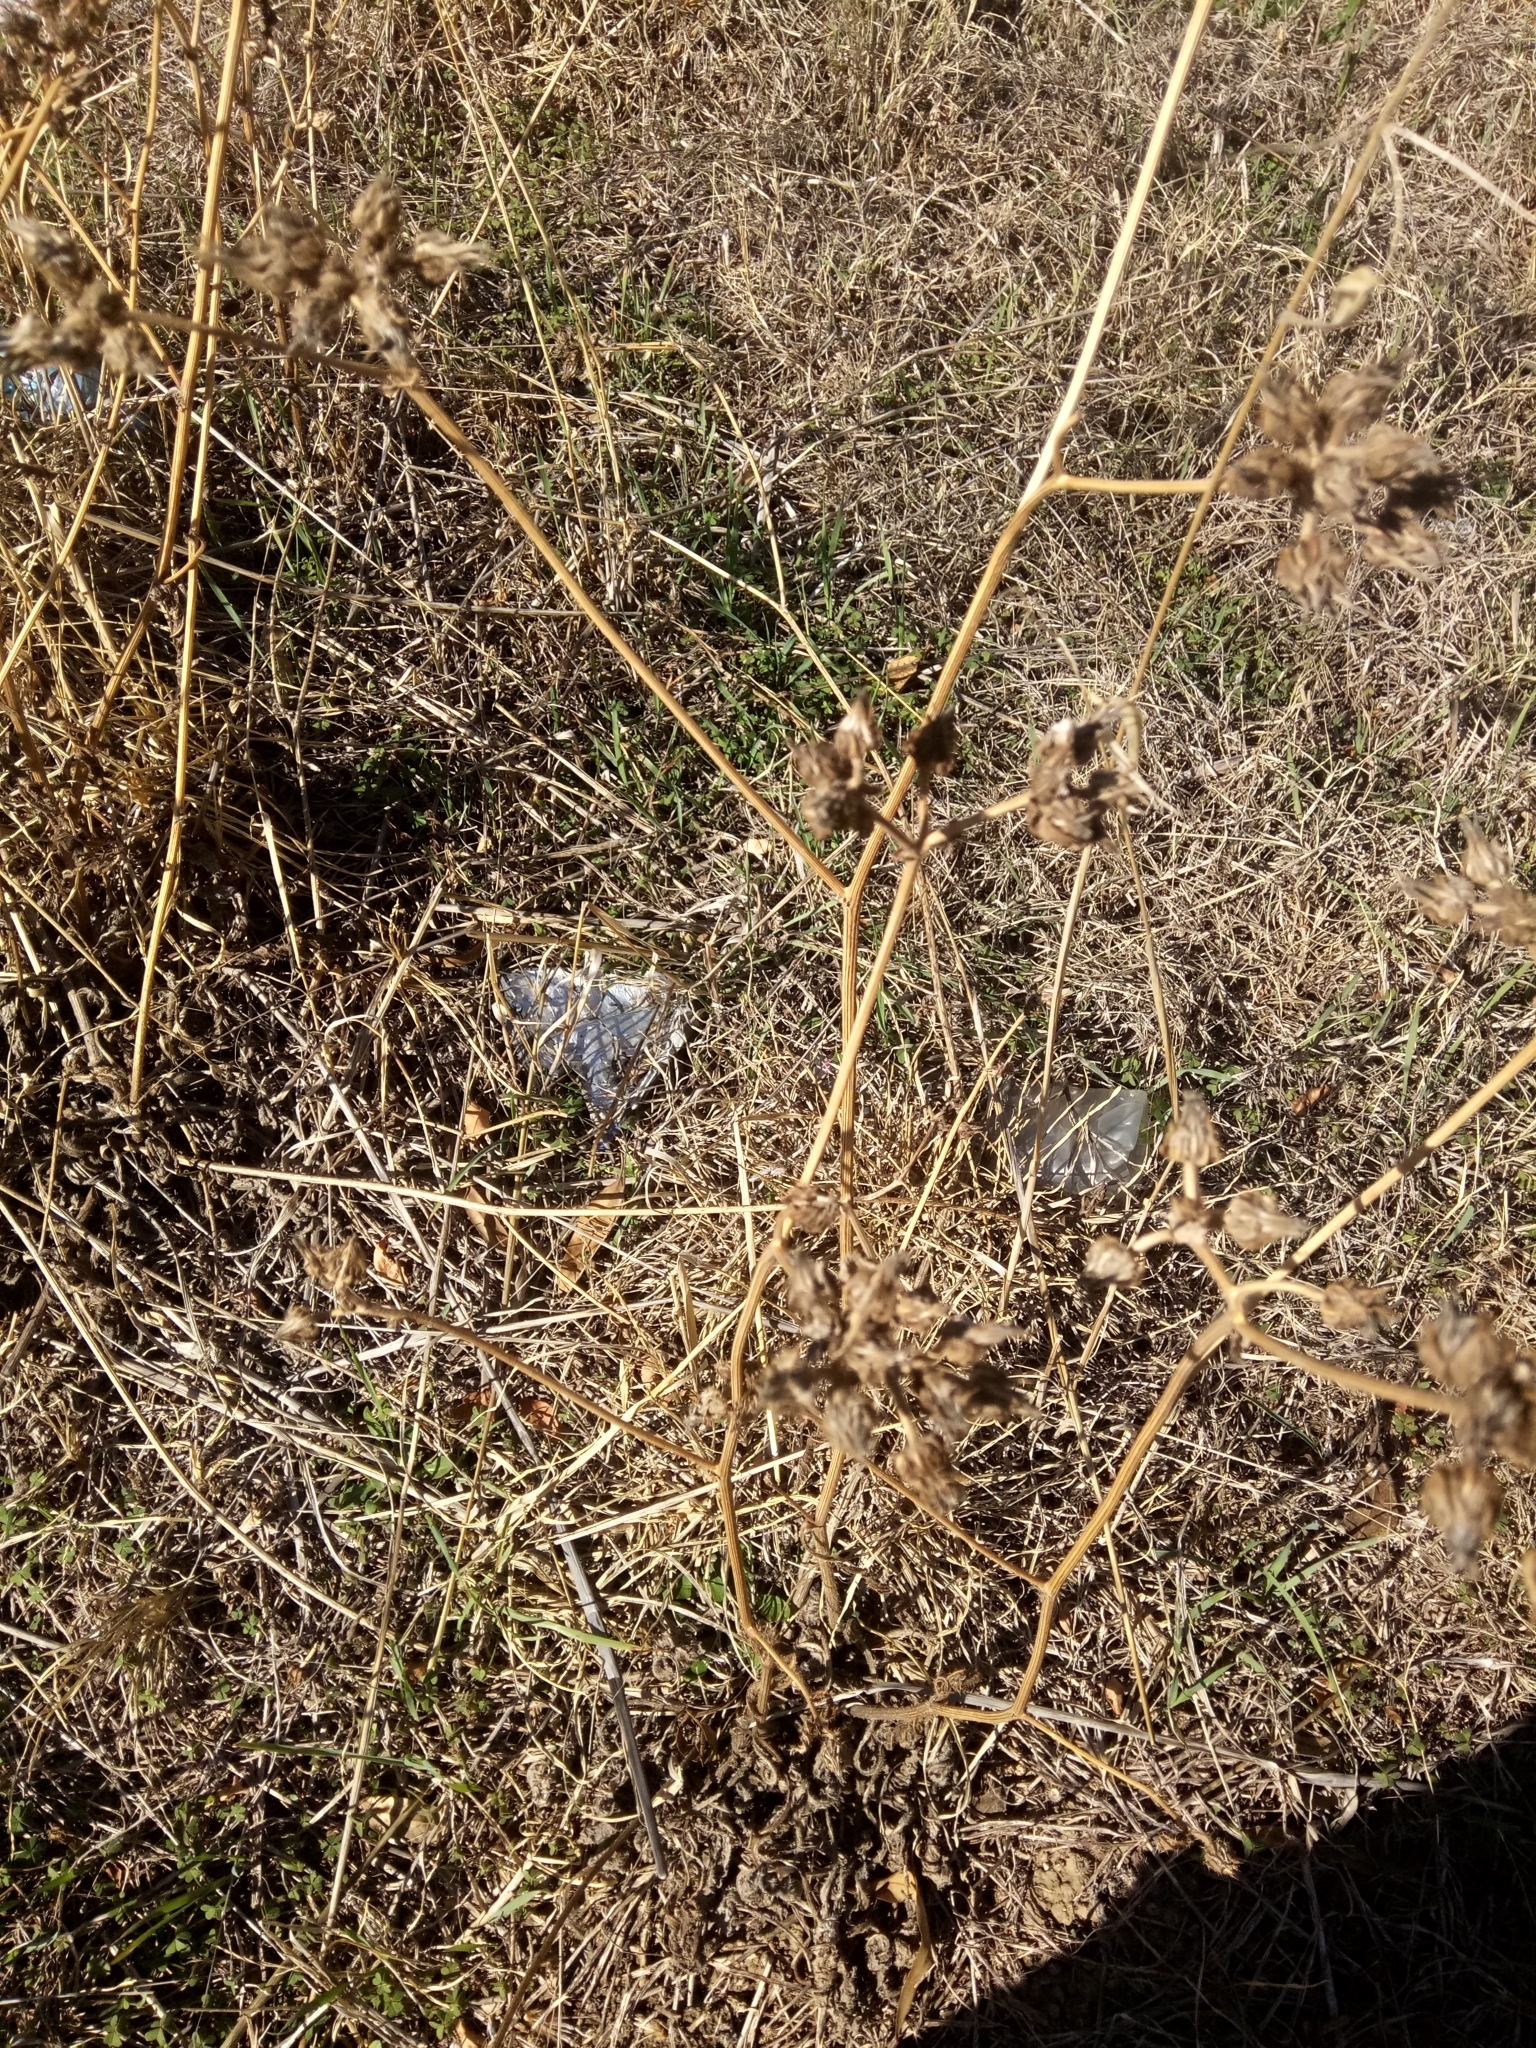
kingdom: Plantae
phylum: Tracheophyta
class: Magnoliopsida
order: Asterales
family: Asteraceae
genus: Helminthotheca
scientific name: Helminthotheca echioides
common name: Ox-tongue
